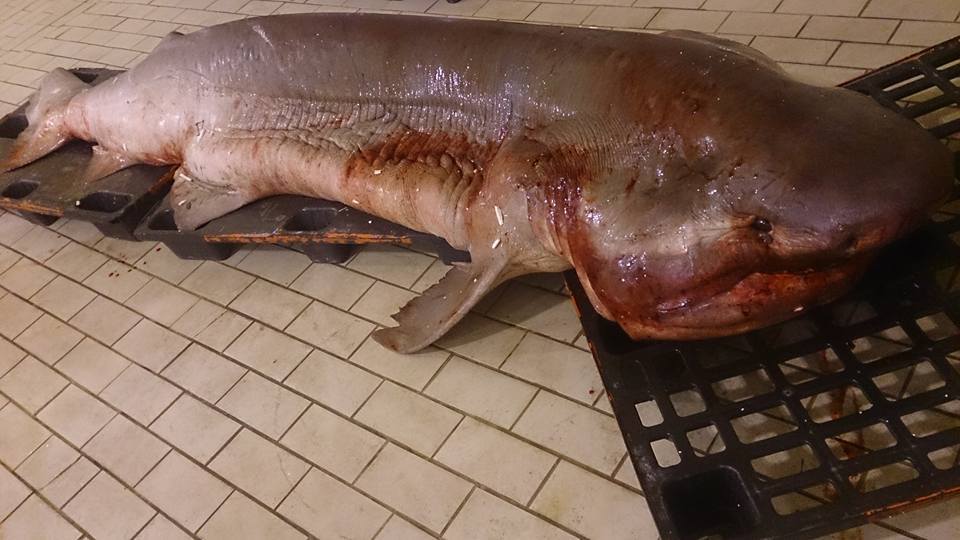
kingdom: Animalia
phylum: Chordata
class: Elasmobranchii
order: Hexanchiformes
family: Hexanchidae
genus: Hexanchus
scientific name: Hexanchus griseus
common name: Bluntnose sixgill shark
